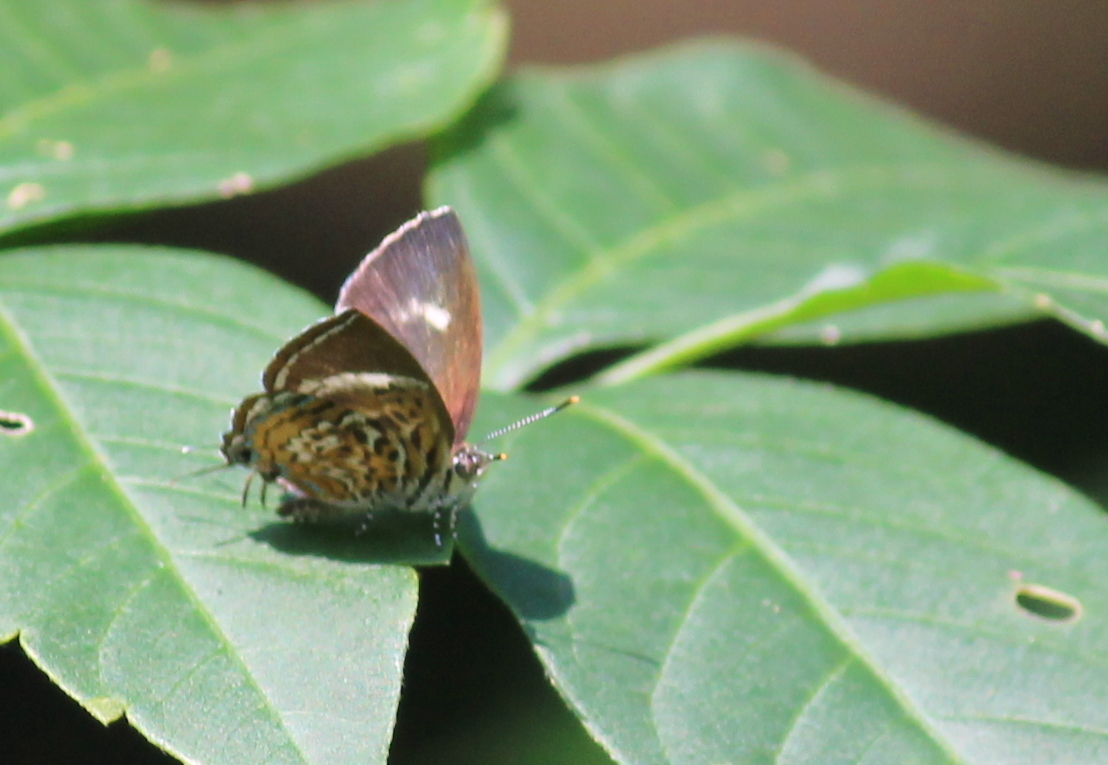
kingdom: Animalia
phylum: Arthropoda
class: Insecta
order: Lepidoptera
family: Lycaenidae
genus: Rathinda
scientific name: Rathinda amor
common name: Monkey puzzle
